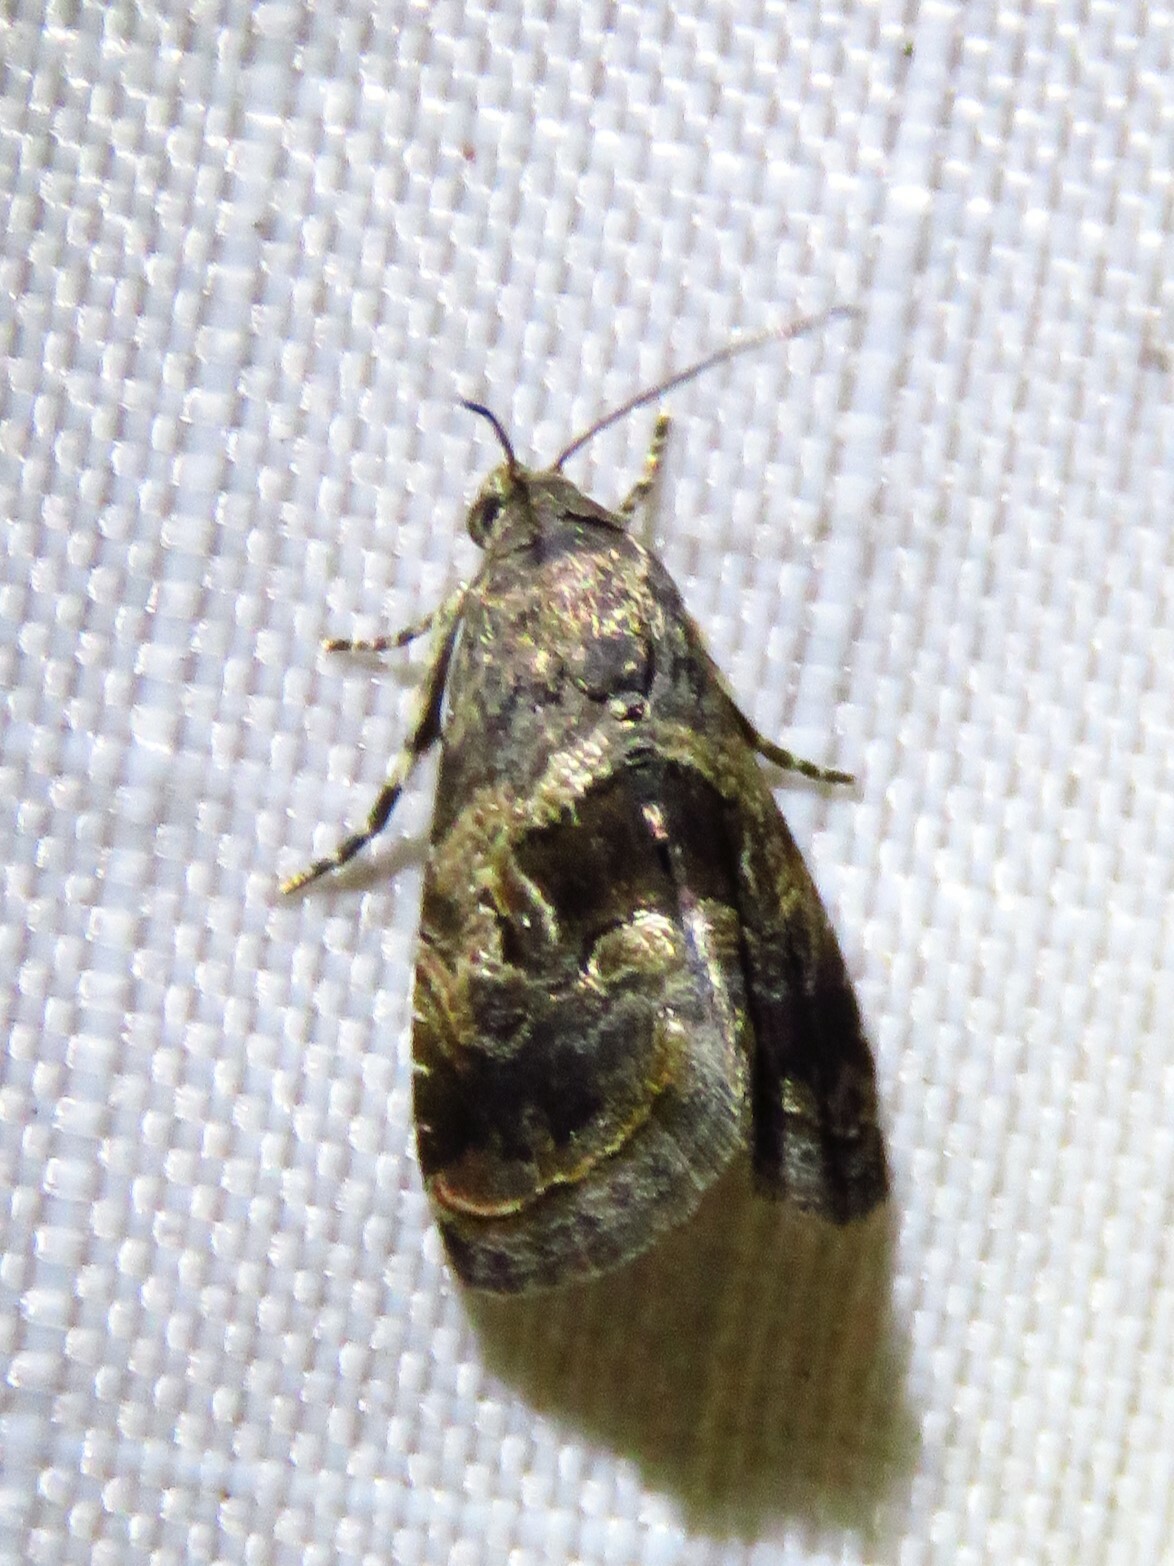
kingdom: Animalia
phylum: Arthropoda
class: Insecta
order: Lepidoptera
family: Noctuidae
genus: Tripudia
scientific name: Tripudia quadrifera
